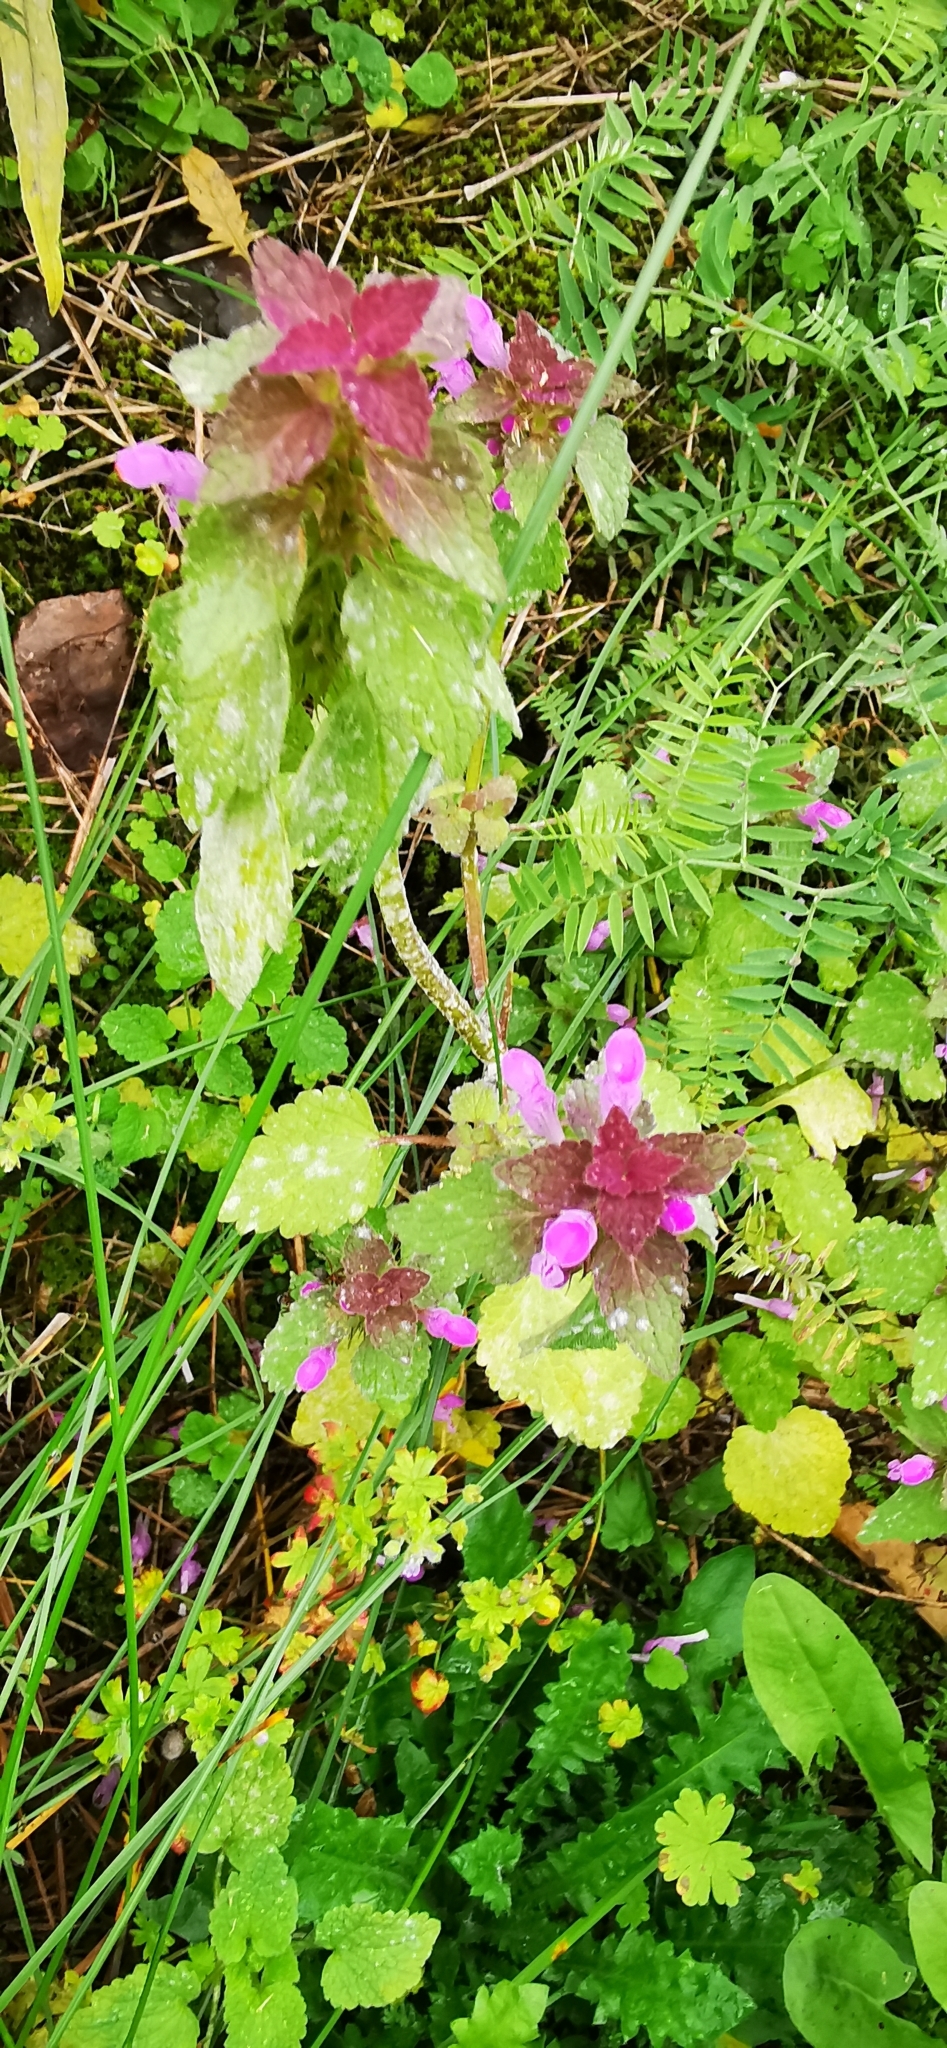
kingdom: Plantae
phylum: Tracheophyta
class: Magnoliopsida
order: Lamiales
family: Lamiaceae
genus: Lamium
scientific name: Lamium purpureum
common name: Red dead-nettle
